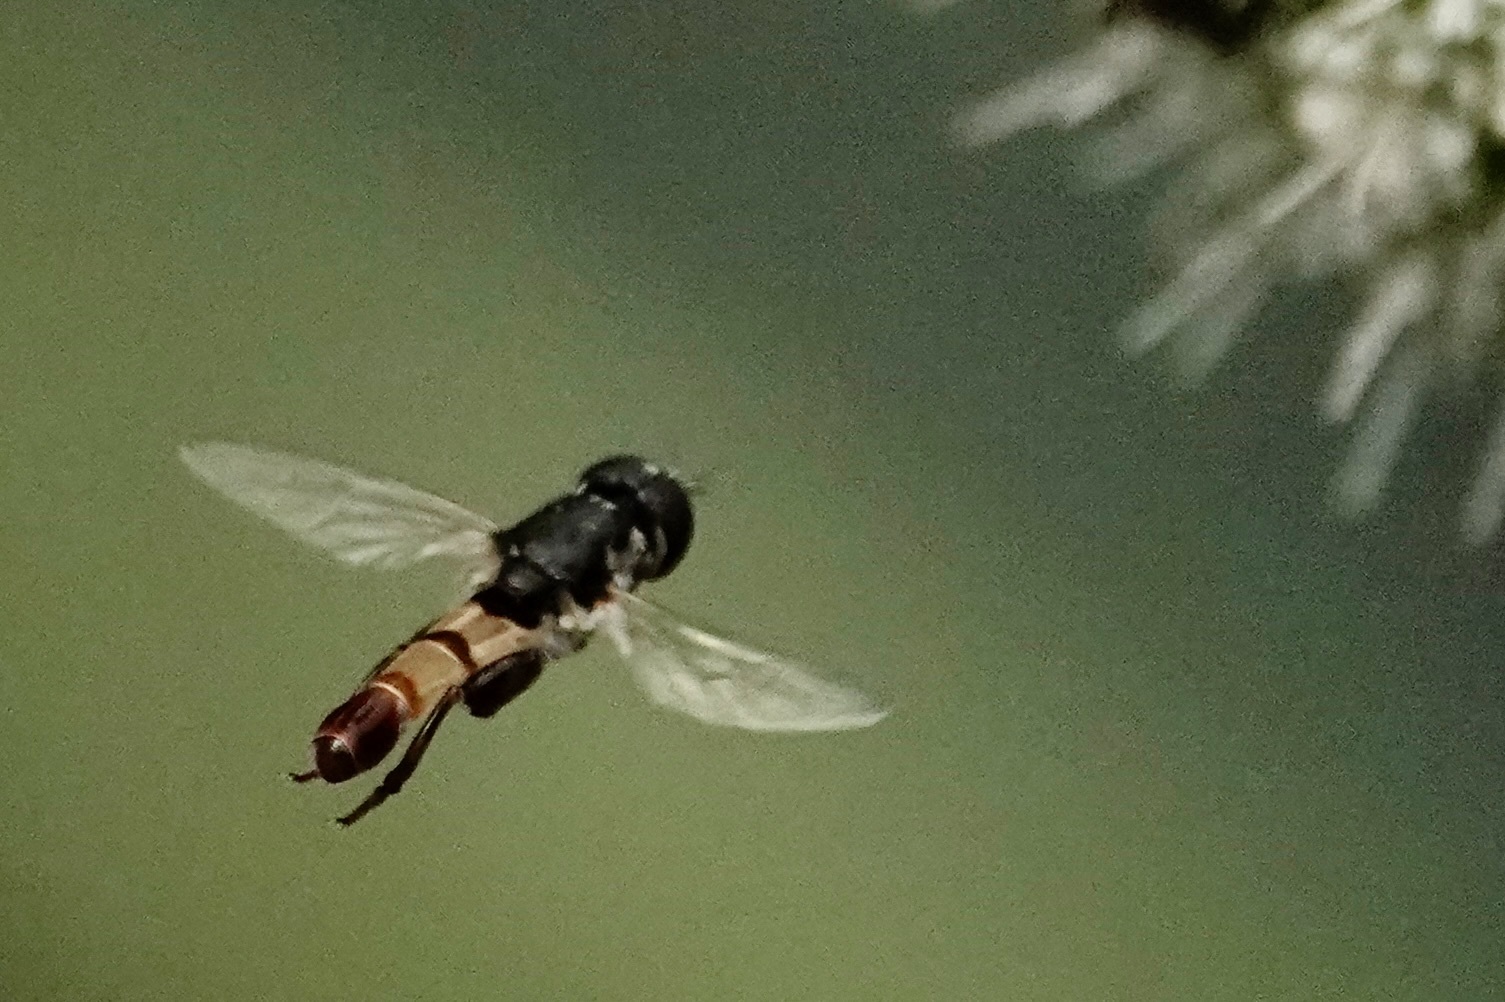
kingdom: Animalia
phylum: Arthropoda
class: Insecta
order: Diptera
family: Syrphidae
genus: Syritta
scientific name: Syritta flaviventris
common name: Syrphid fly
